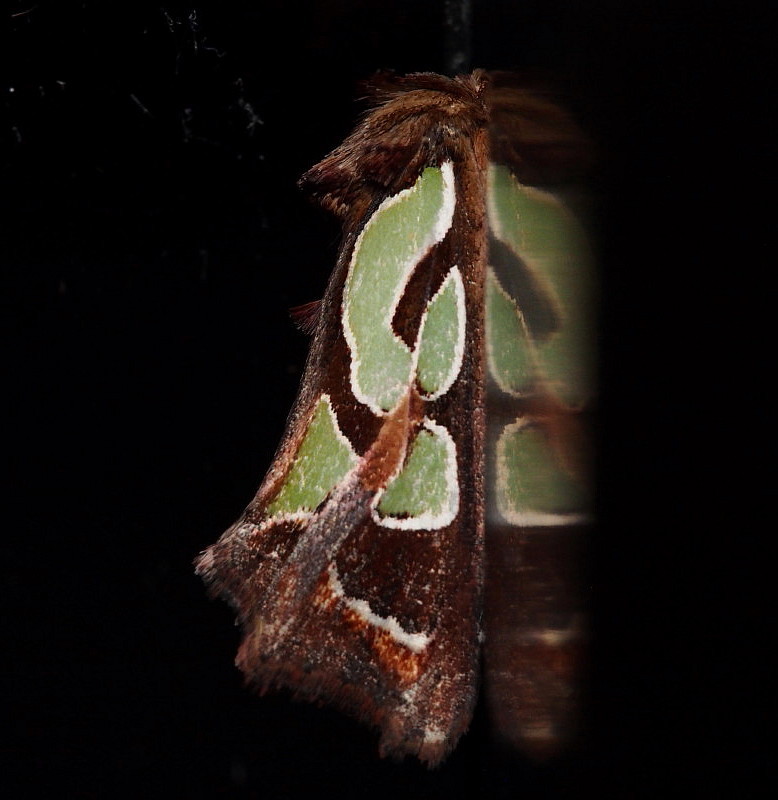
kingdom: Animalia
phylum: Arthropoda
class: Insecta
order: Lepidoptera
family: Noctuidae
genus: Cosmodes
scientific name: Cosmodes elegans
